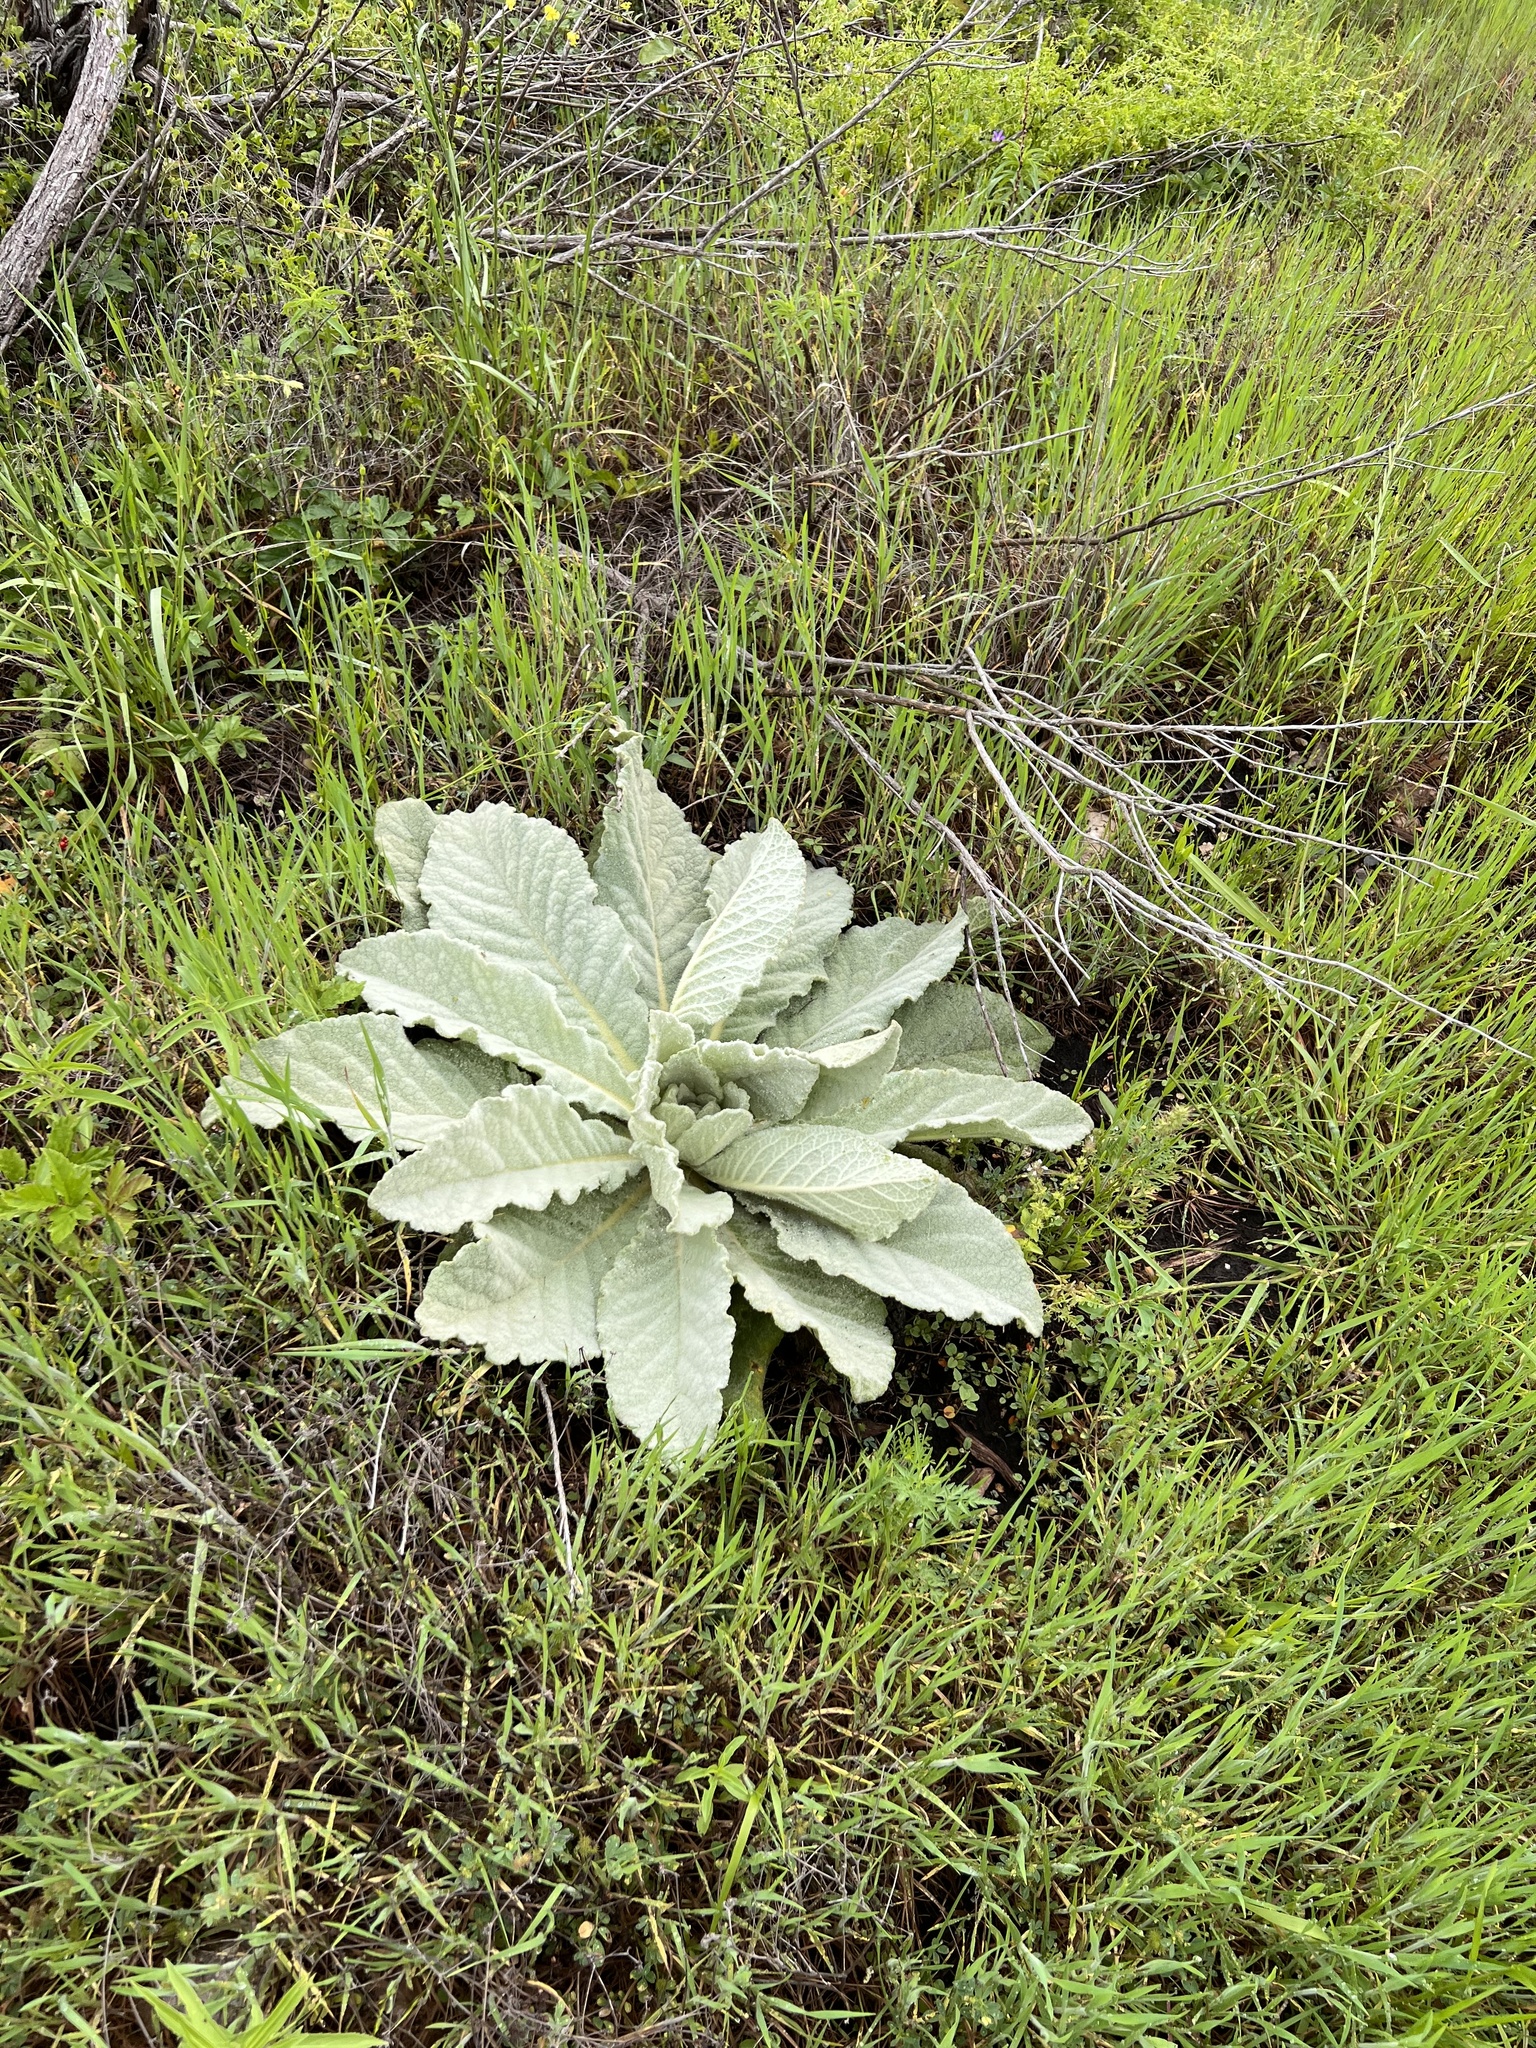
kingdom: Plantae
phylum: Tracheophyta
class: Magnoliopsida
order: Lamiales
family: Scrophulariaceae
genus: Verbascum
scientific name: Verbascum thapsus
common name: Common mullein
